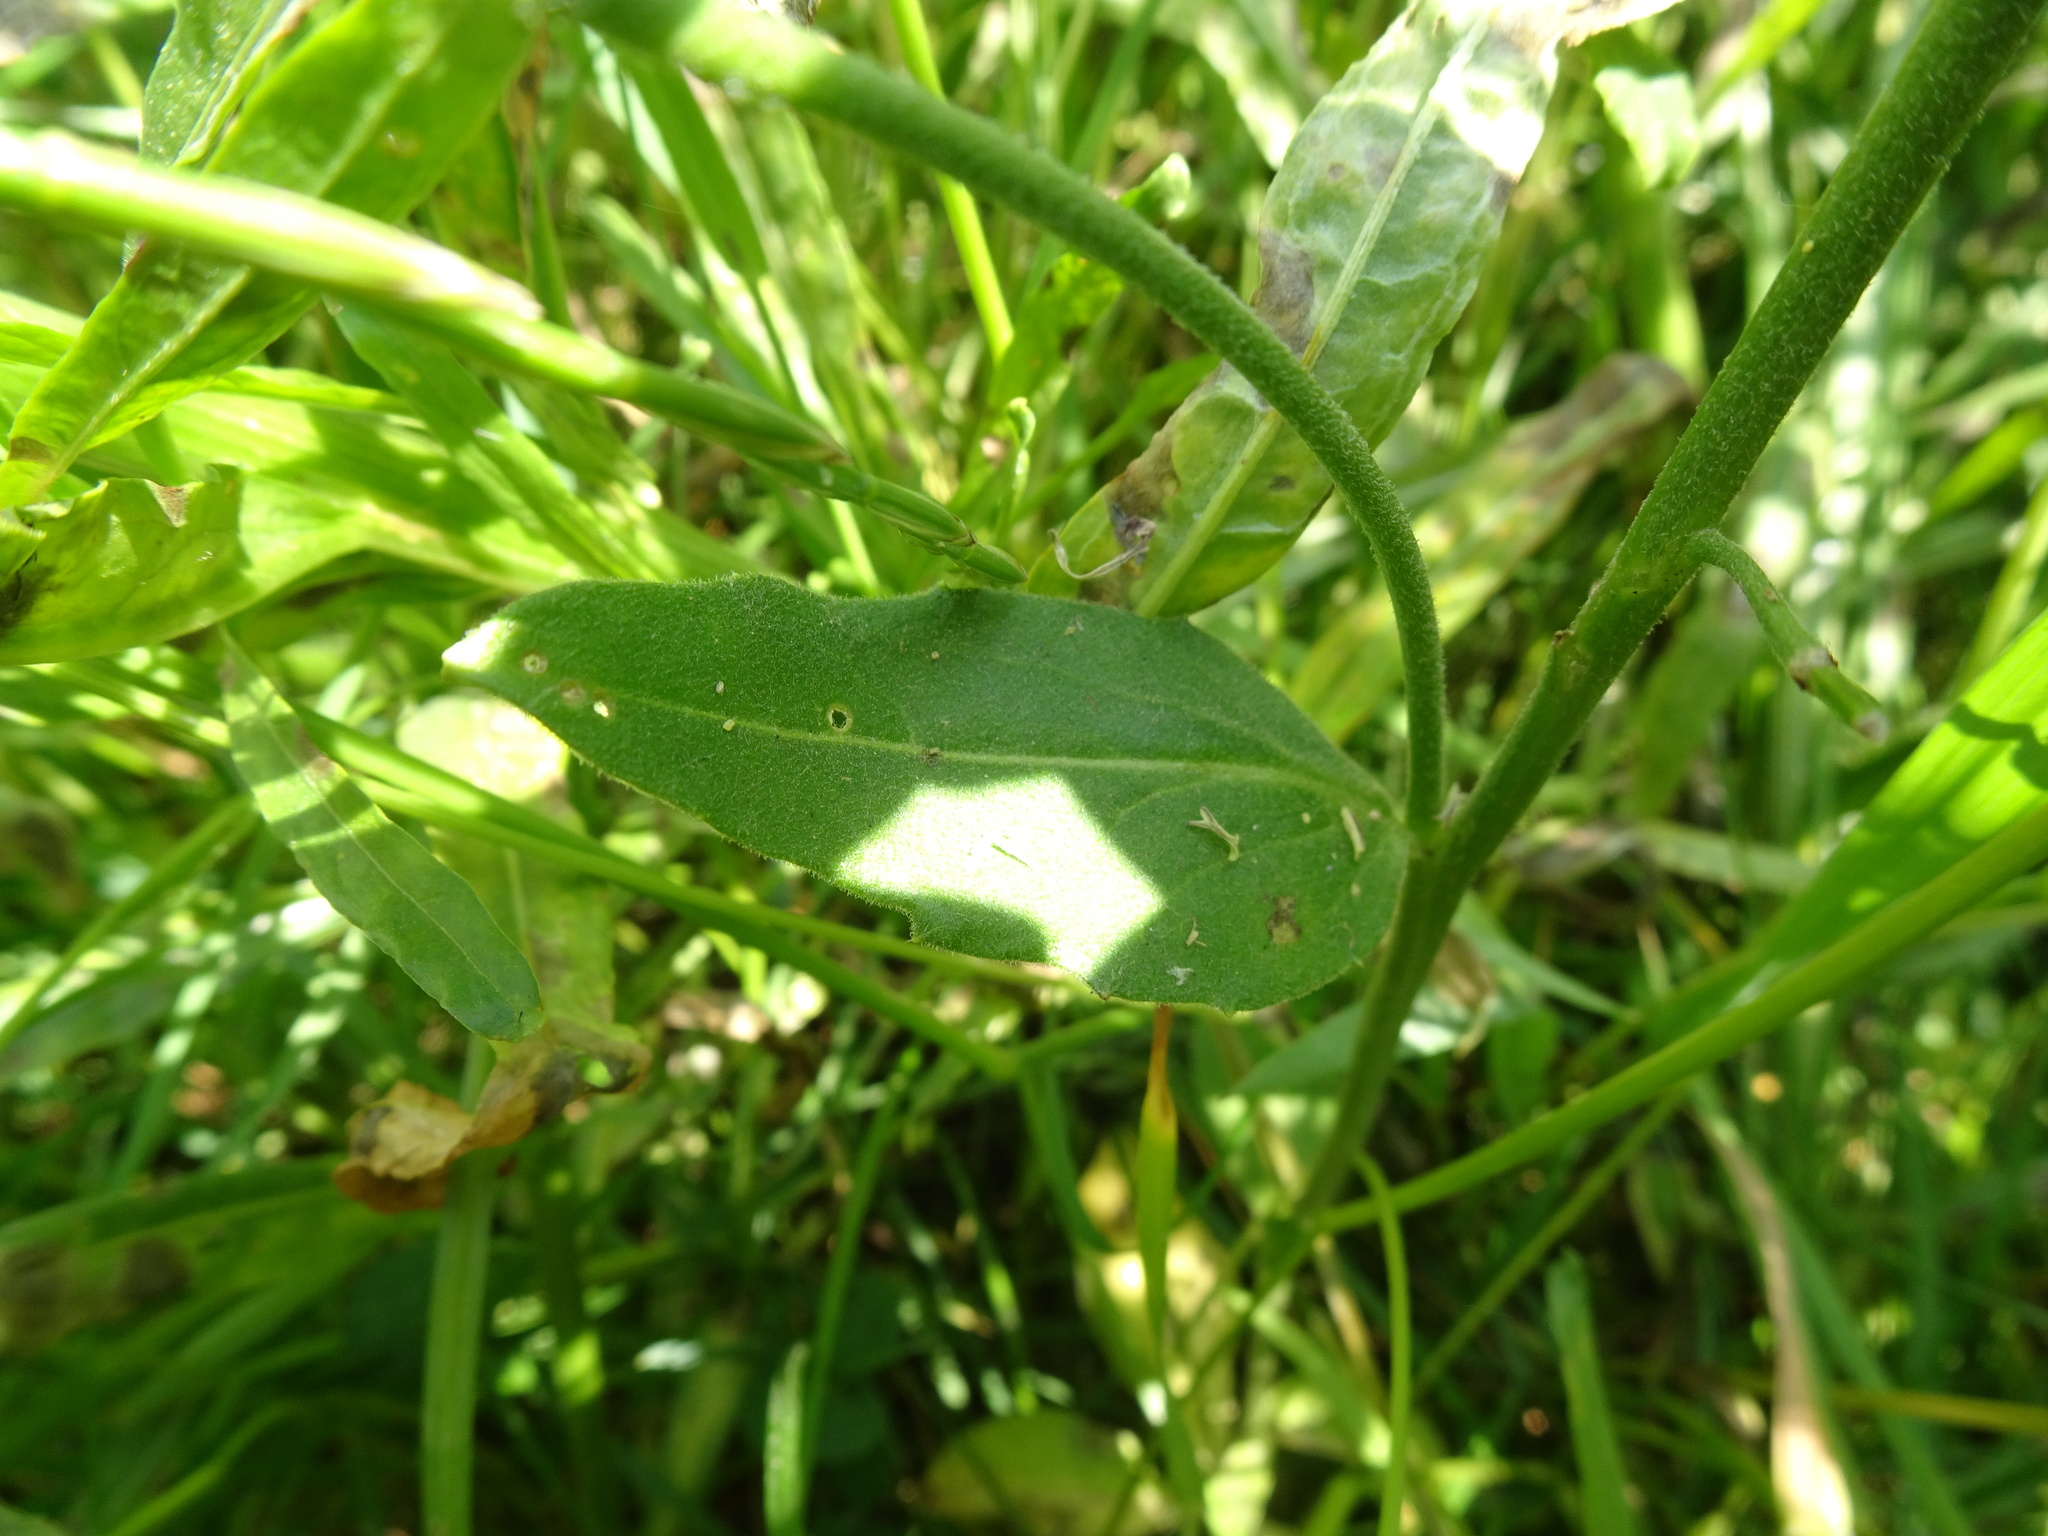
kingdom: Plantae
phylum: Tracheophyta
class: Magnoliopsida
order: Brassicales
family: Brassicaceae
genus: Hesperis
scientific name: Hesperis matronalis
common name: Dame's-violet
